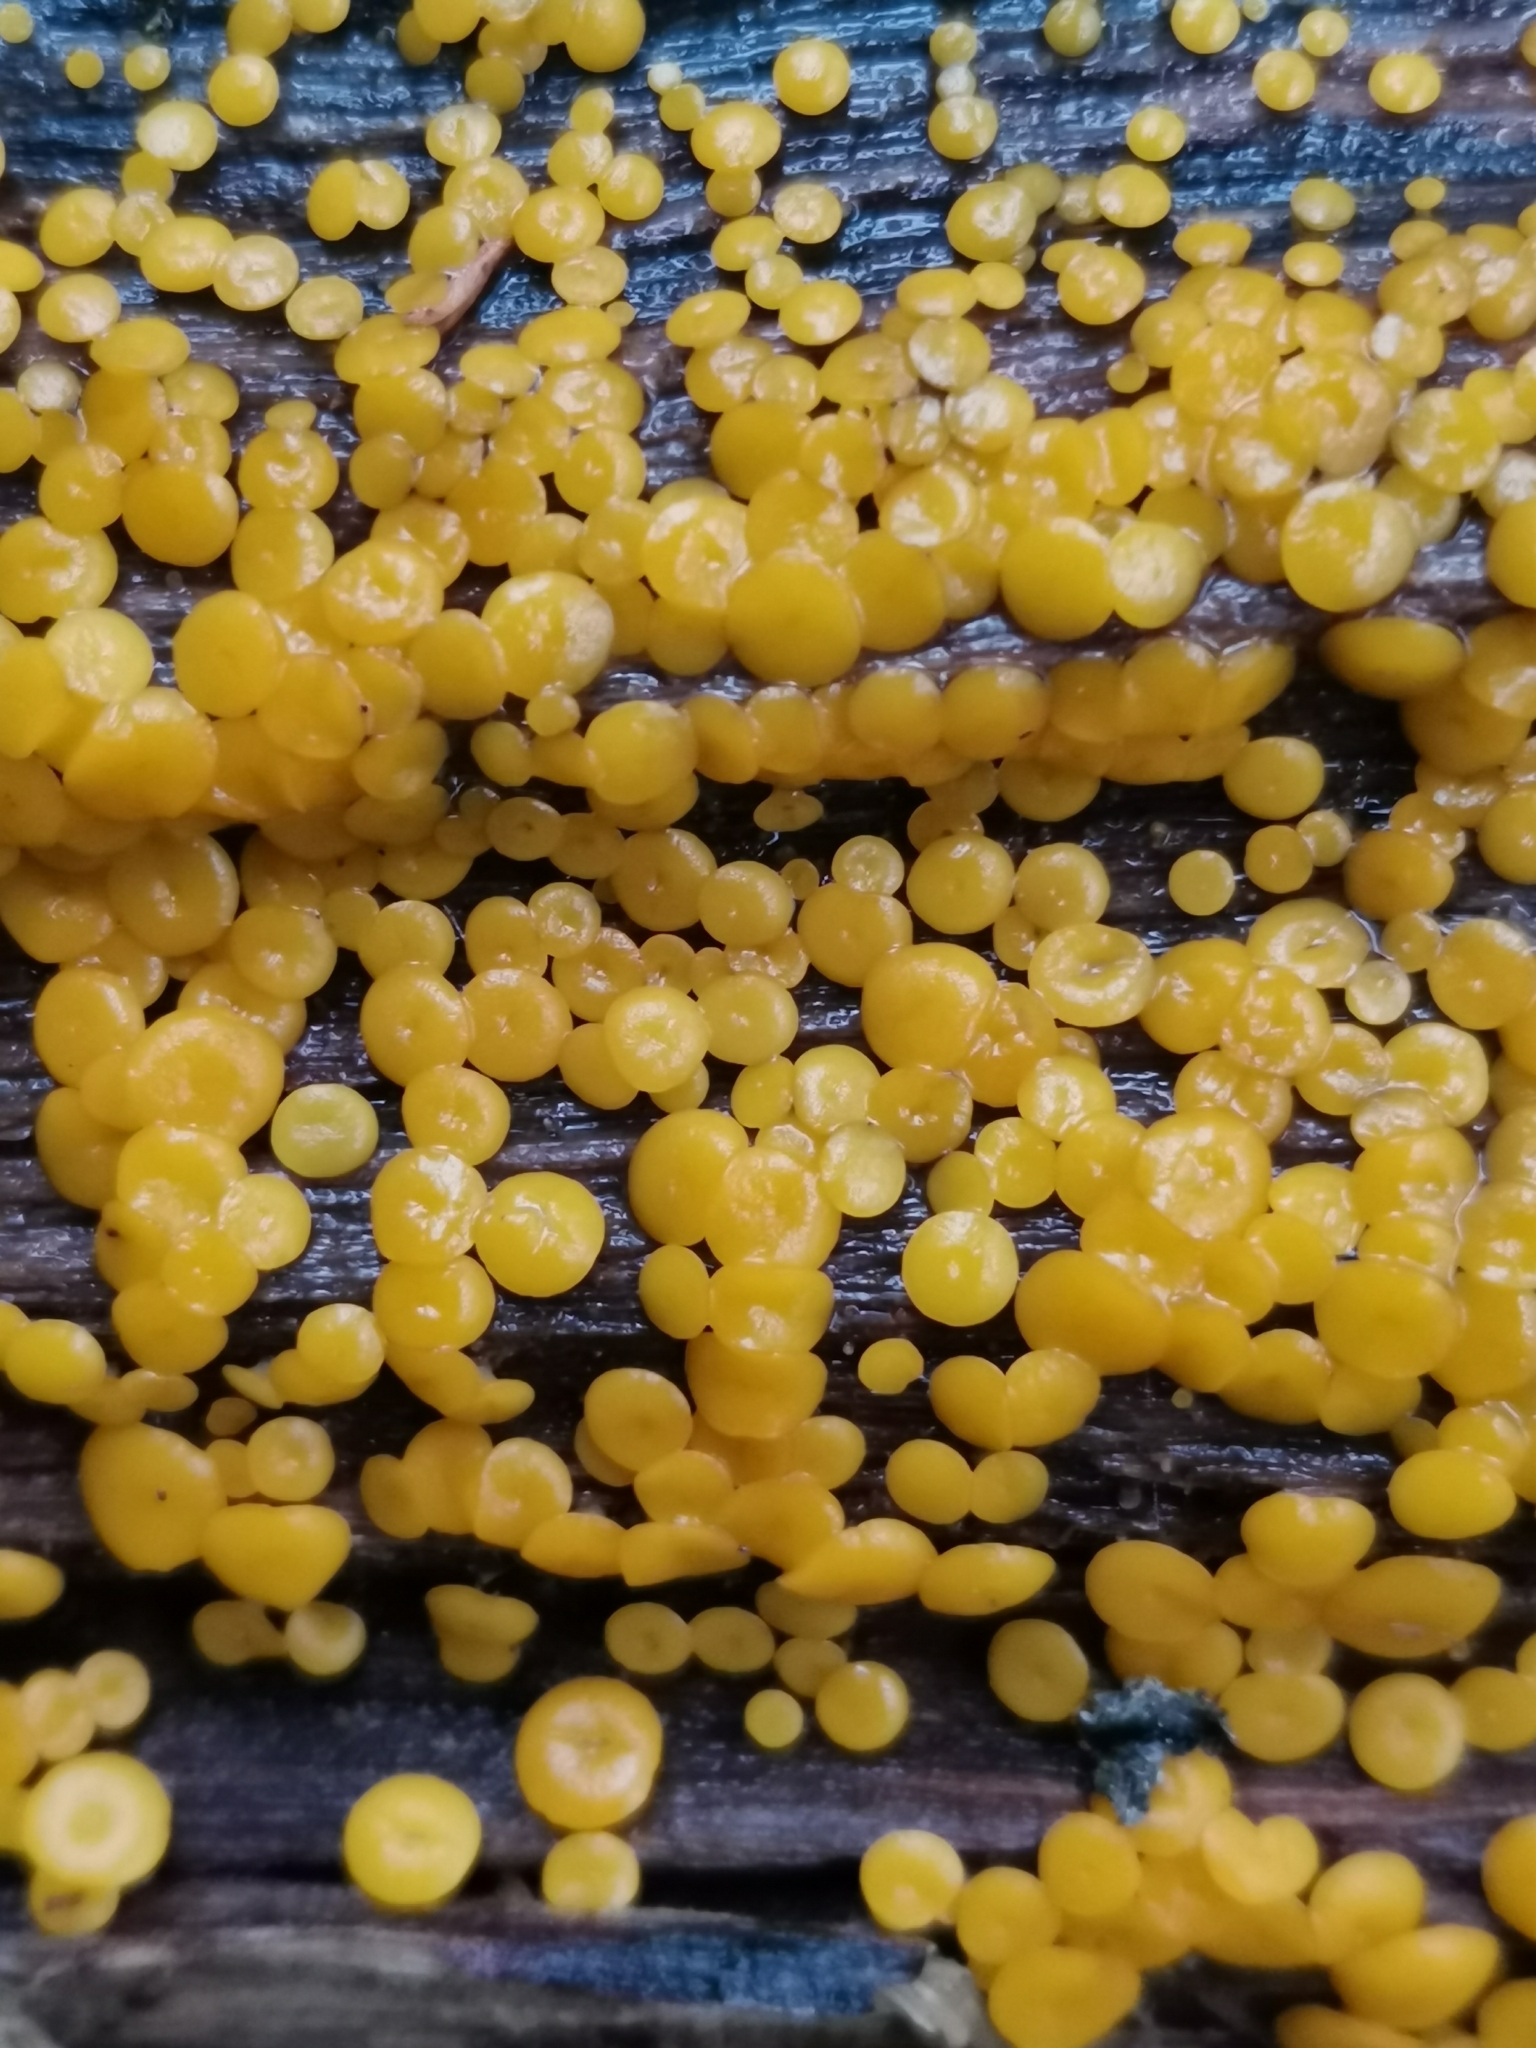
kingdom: Fungi
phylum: Ascomycota
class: Leotiomycetes
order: Helotiales
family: Pezizellaceae
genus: Calycina
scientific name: Calycina citrina
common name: Yellow fairy cups
